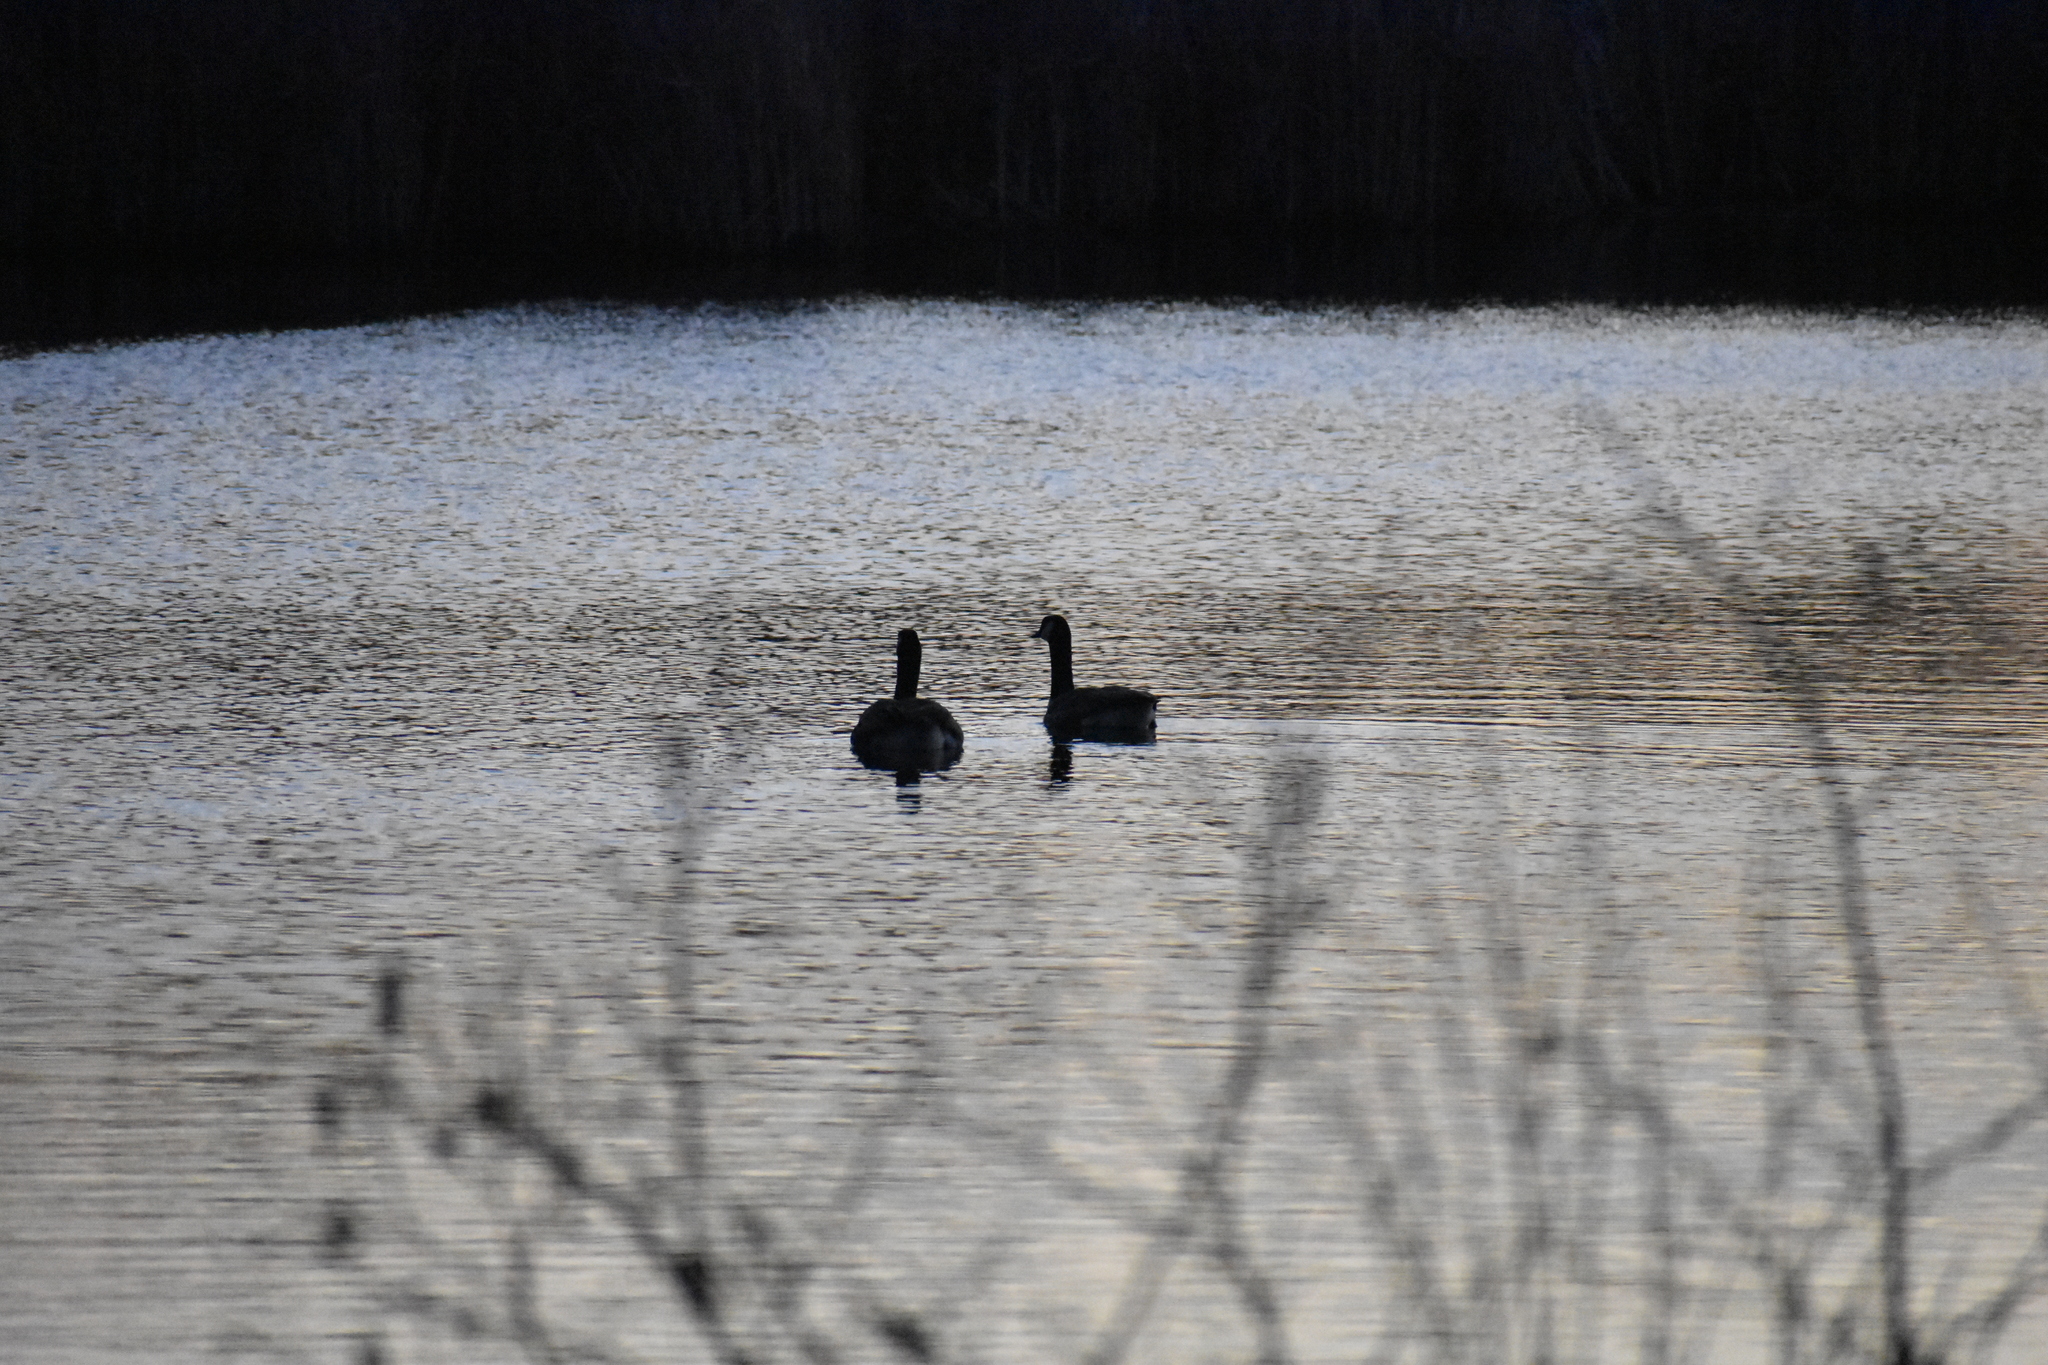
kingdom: Animalia
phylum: Chordata
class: Aves
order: Anseriformes
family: Anatidae
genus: Branta
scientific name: Branta canadensis
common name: Canada goose
